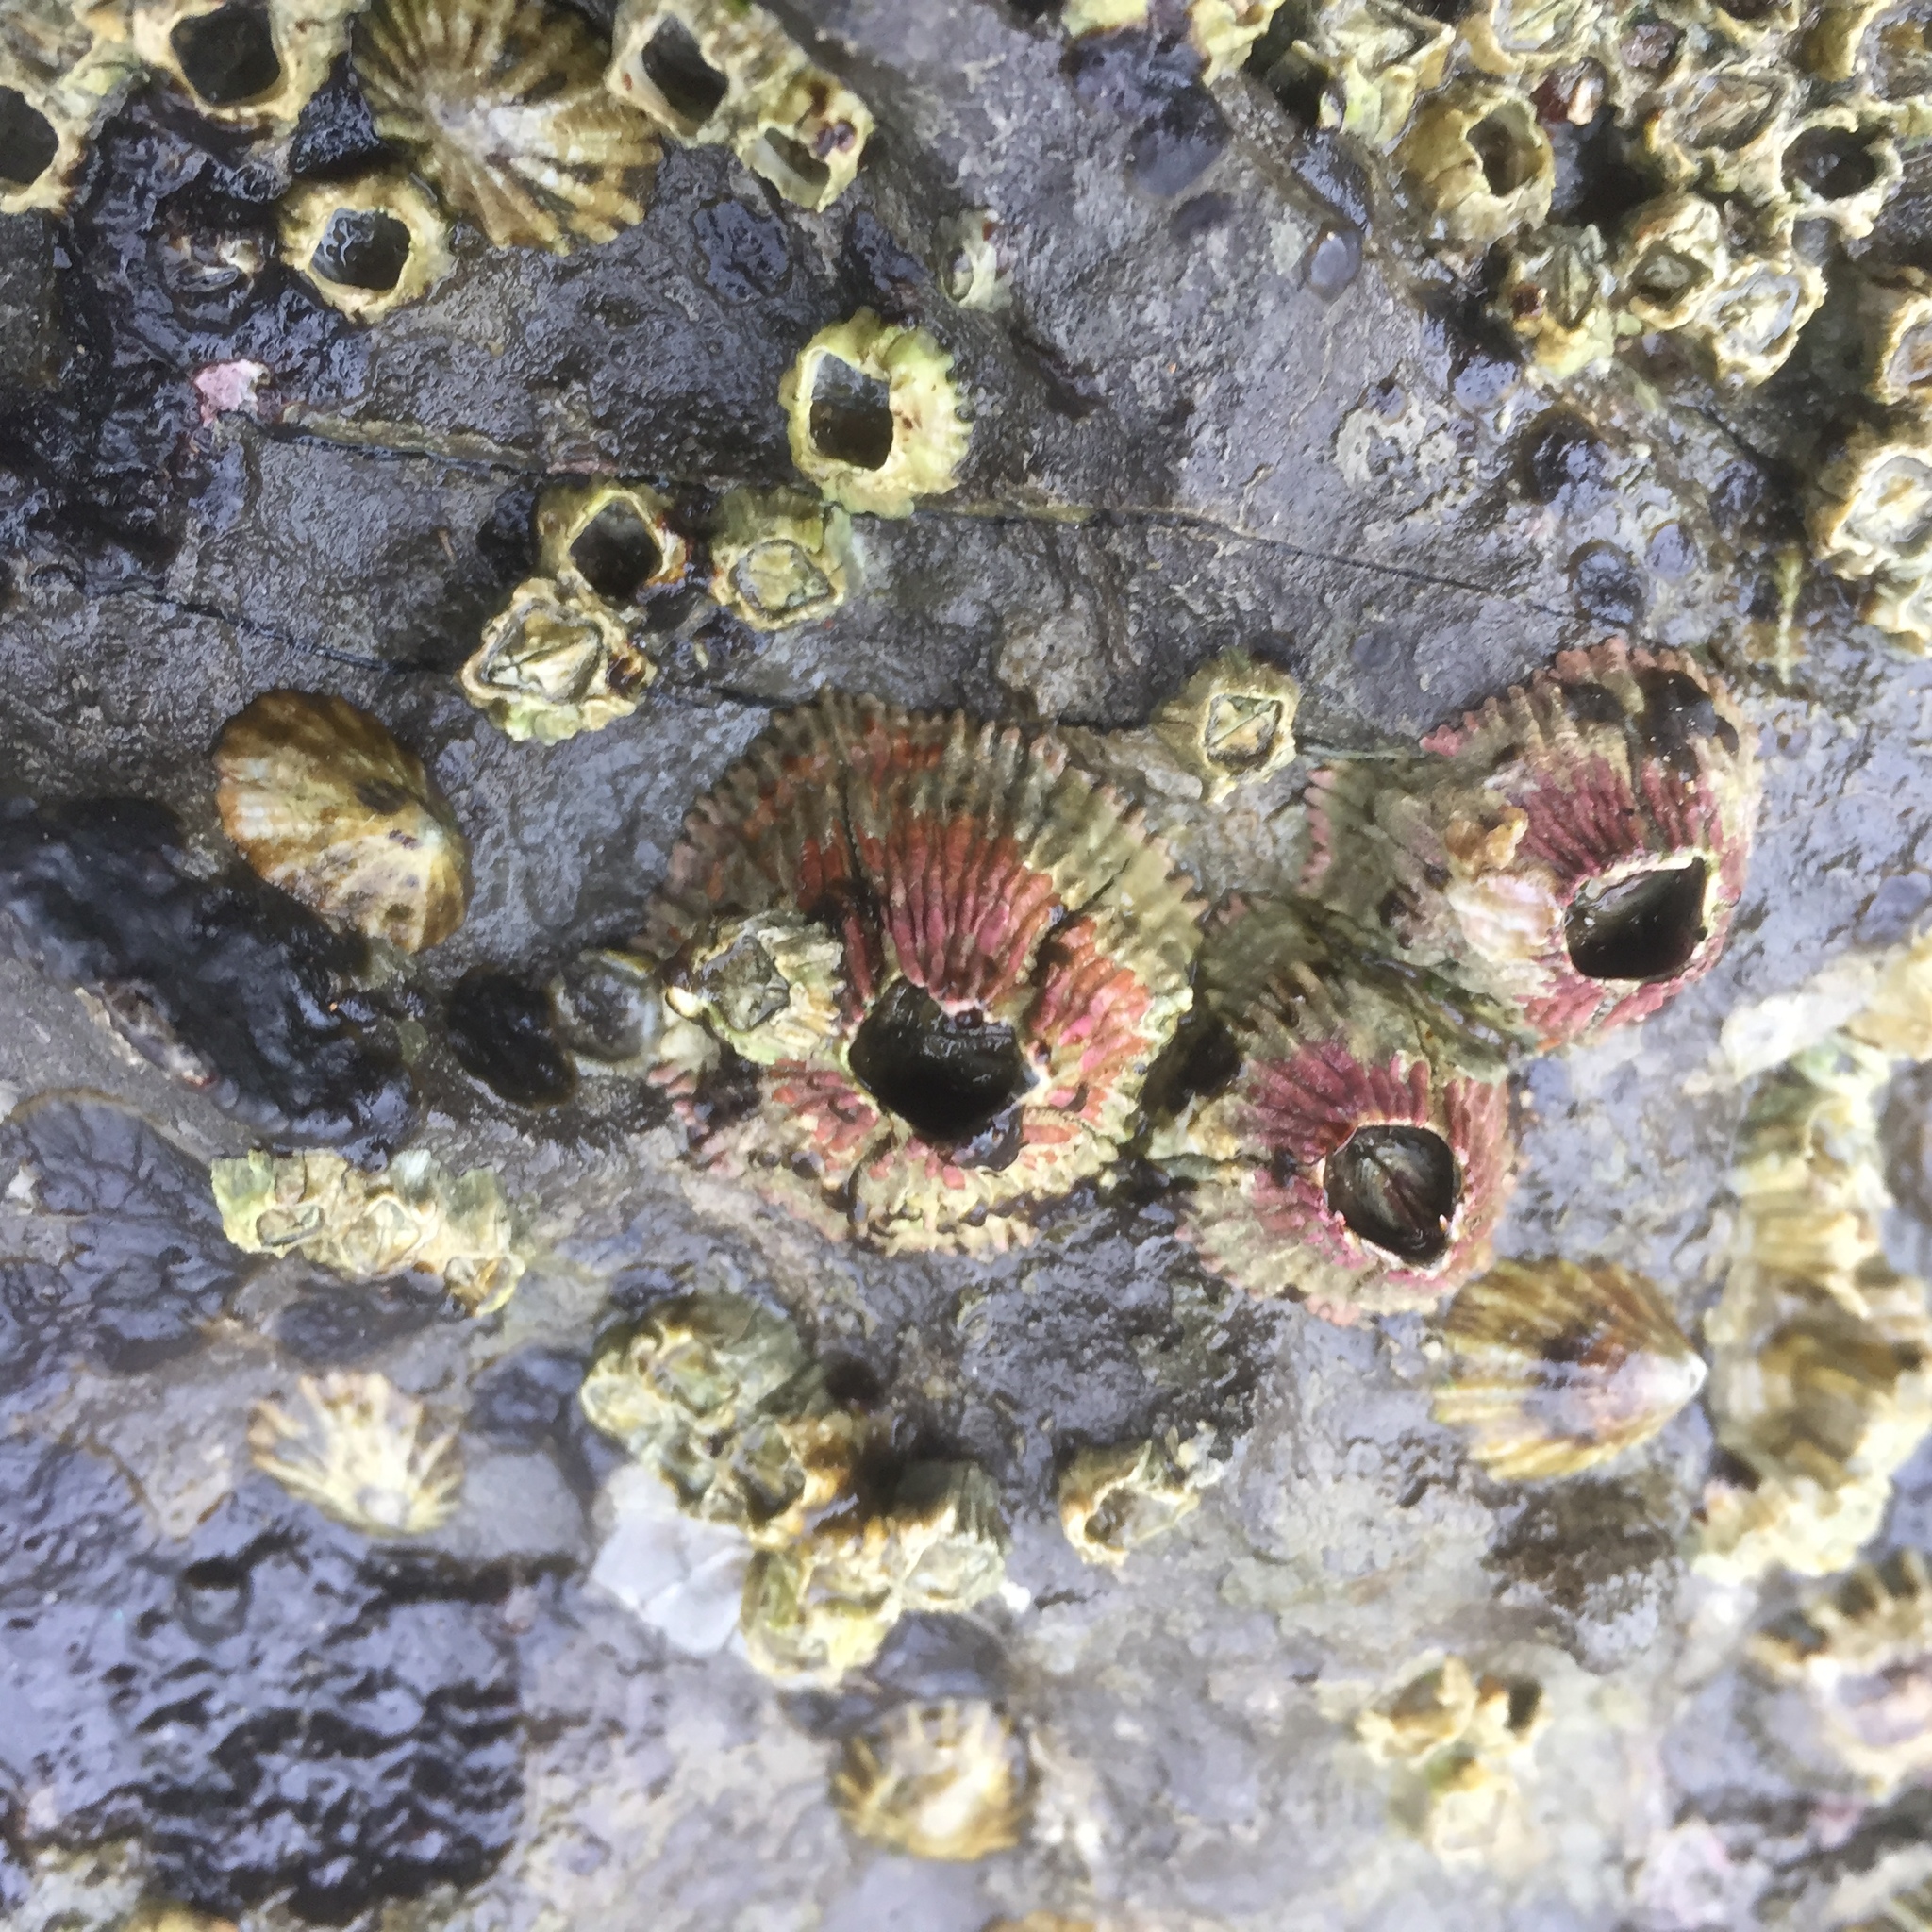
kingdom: Animalia
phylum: Arthropoda
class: Maxillopoda
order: Sessilia
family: Tetraclitidae
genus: Tetraclita
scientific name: Tetraclita rubescens
